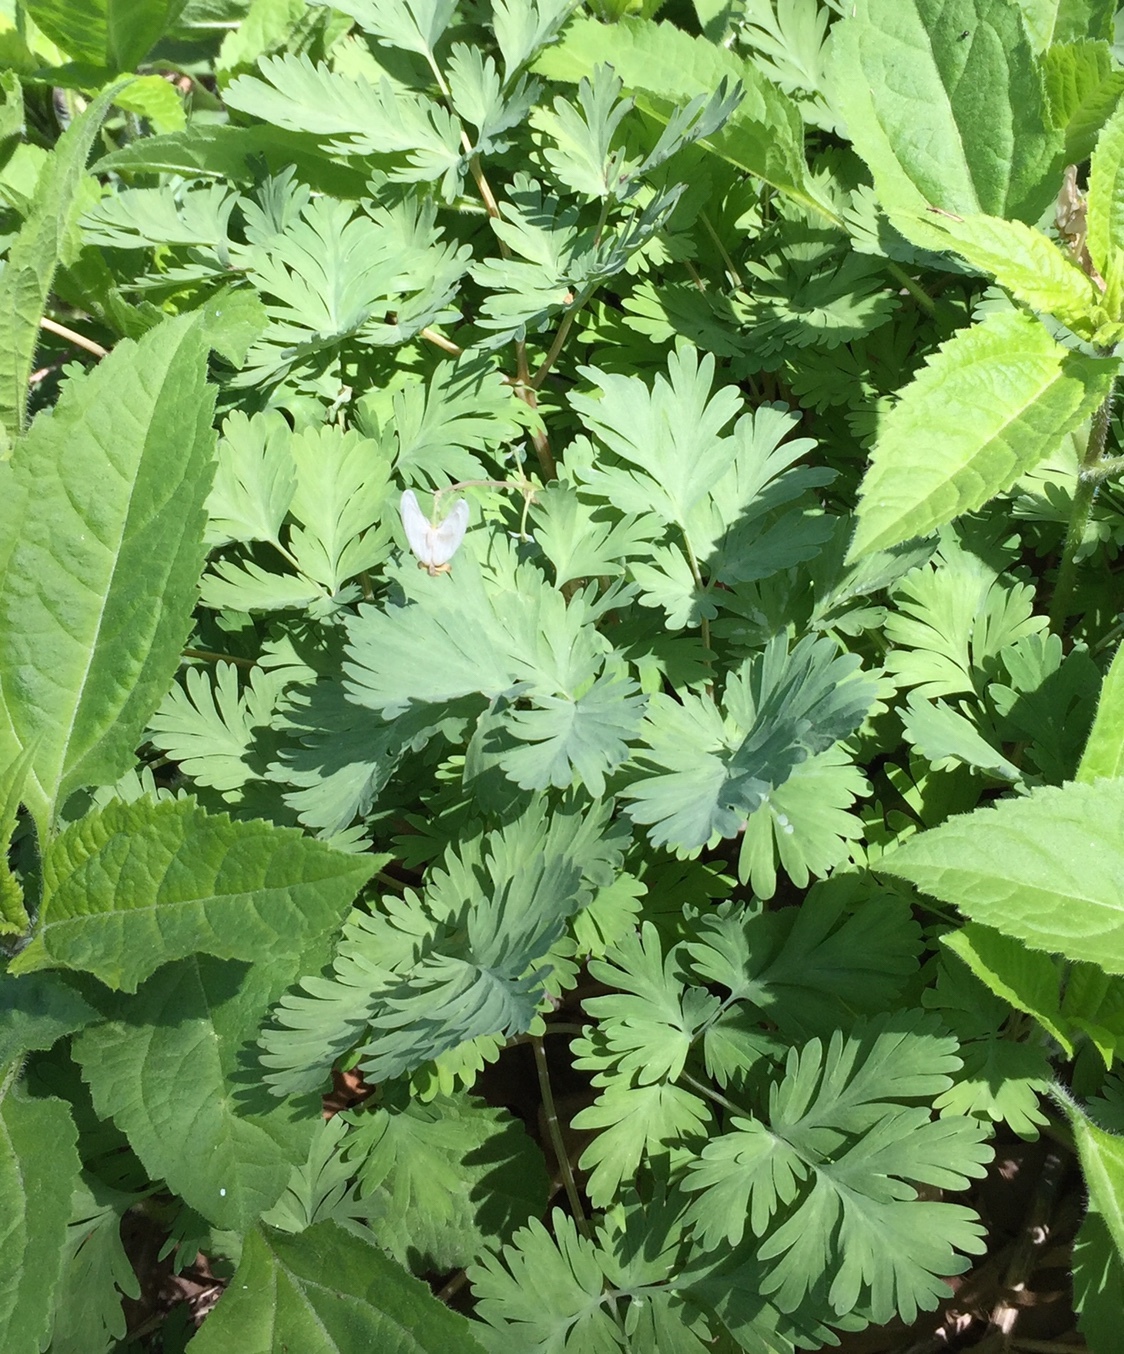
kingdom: Plantae
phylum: Tracheophyta
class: Magnoliopsida
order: Ranunculales
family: Papaveraceae
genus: Dicentra
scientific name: Dicentra cucullaria
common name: Dutchman's breeches
